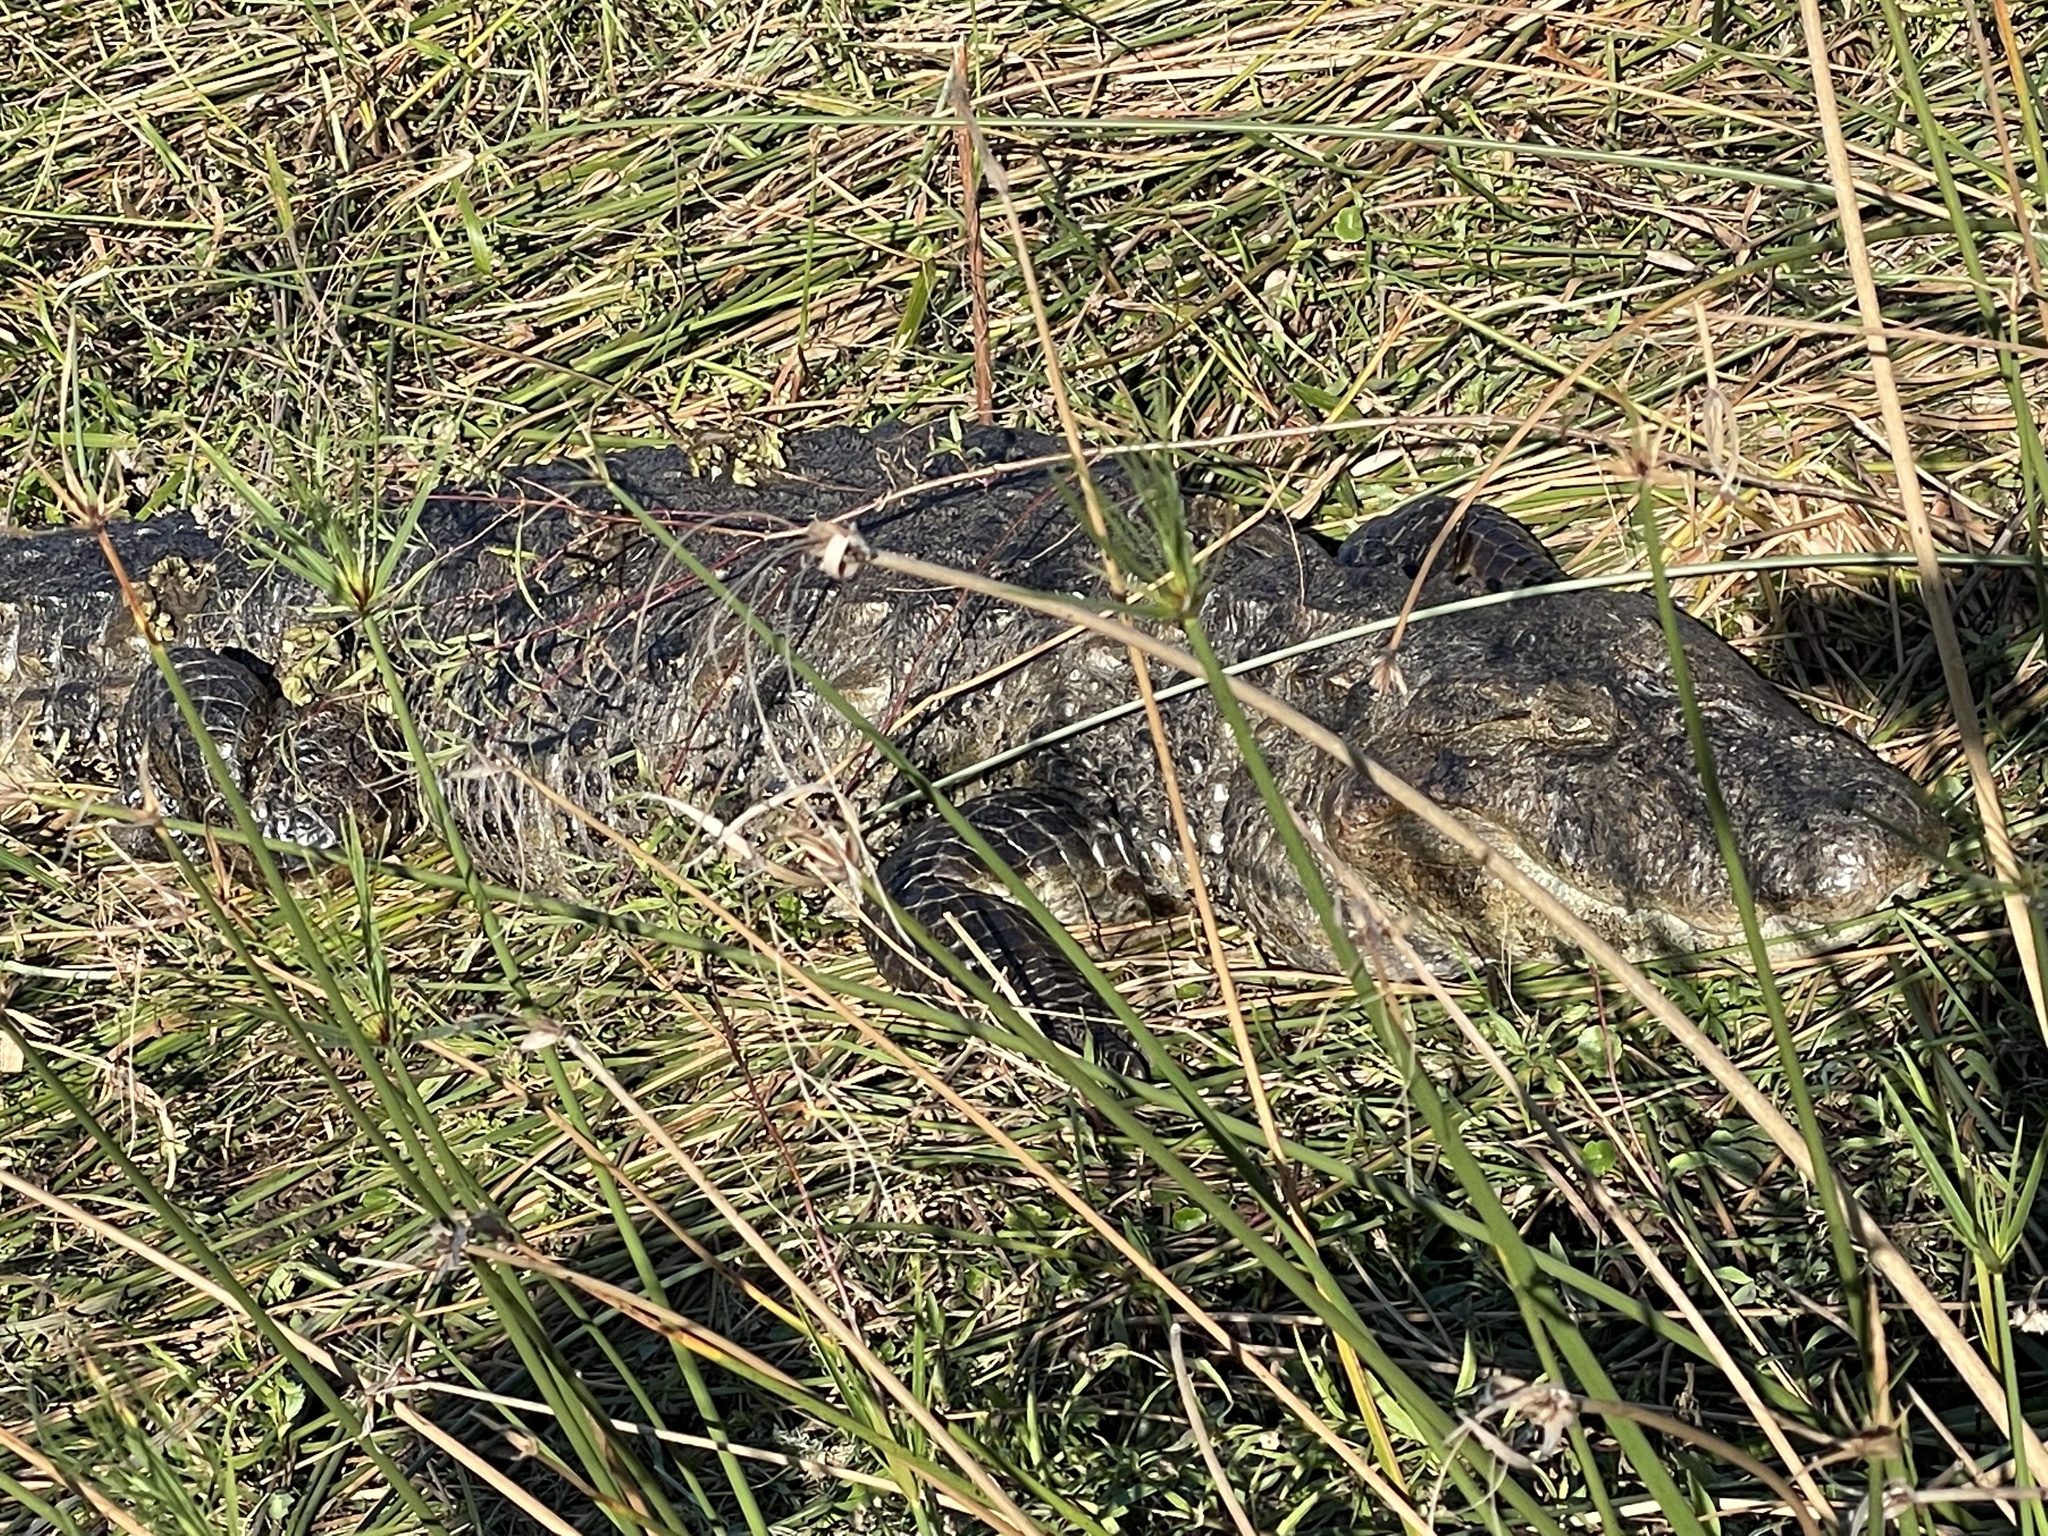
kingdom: Animalia
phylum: Chordata
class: Crocodylia
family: Alligatoridae
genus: Caiman
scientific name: Caiman latirostris
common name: Broad-snouted caiman
